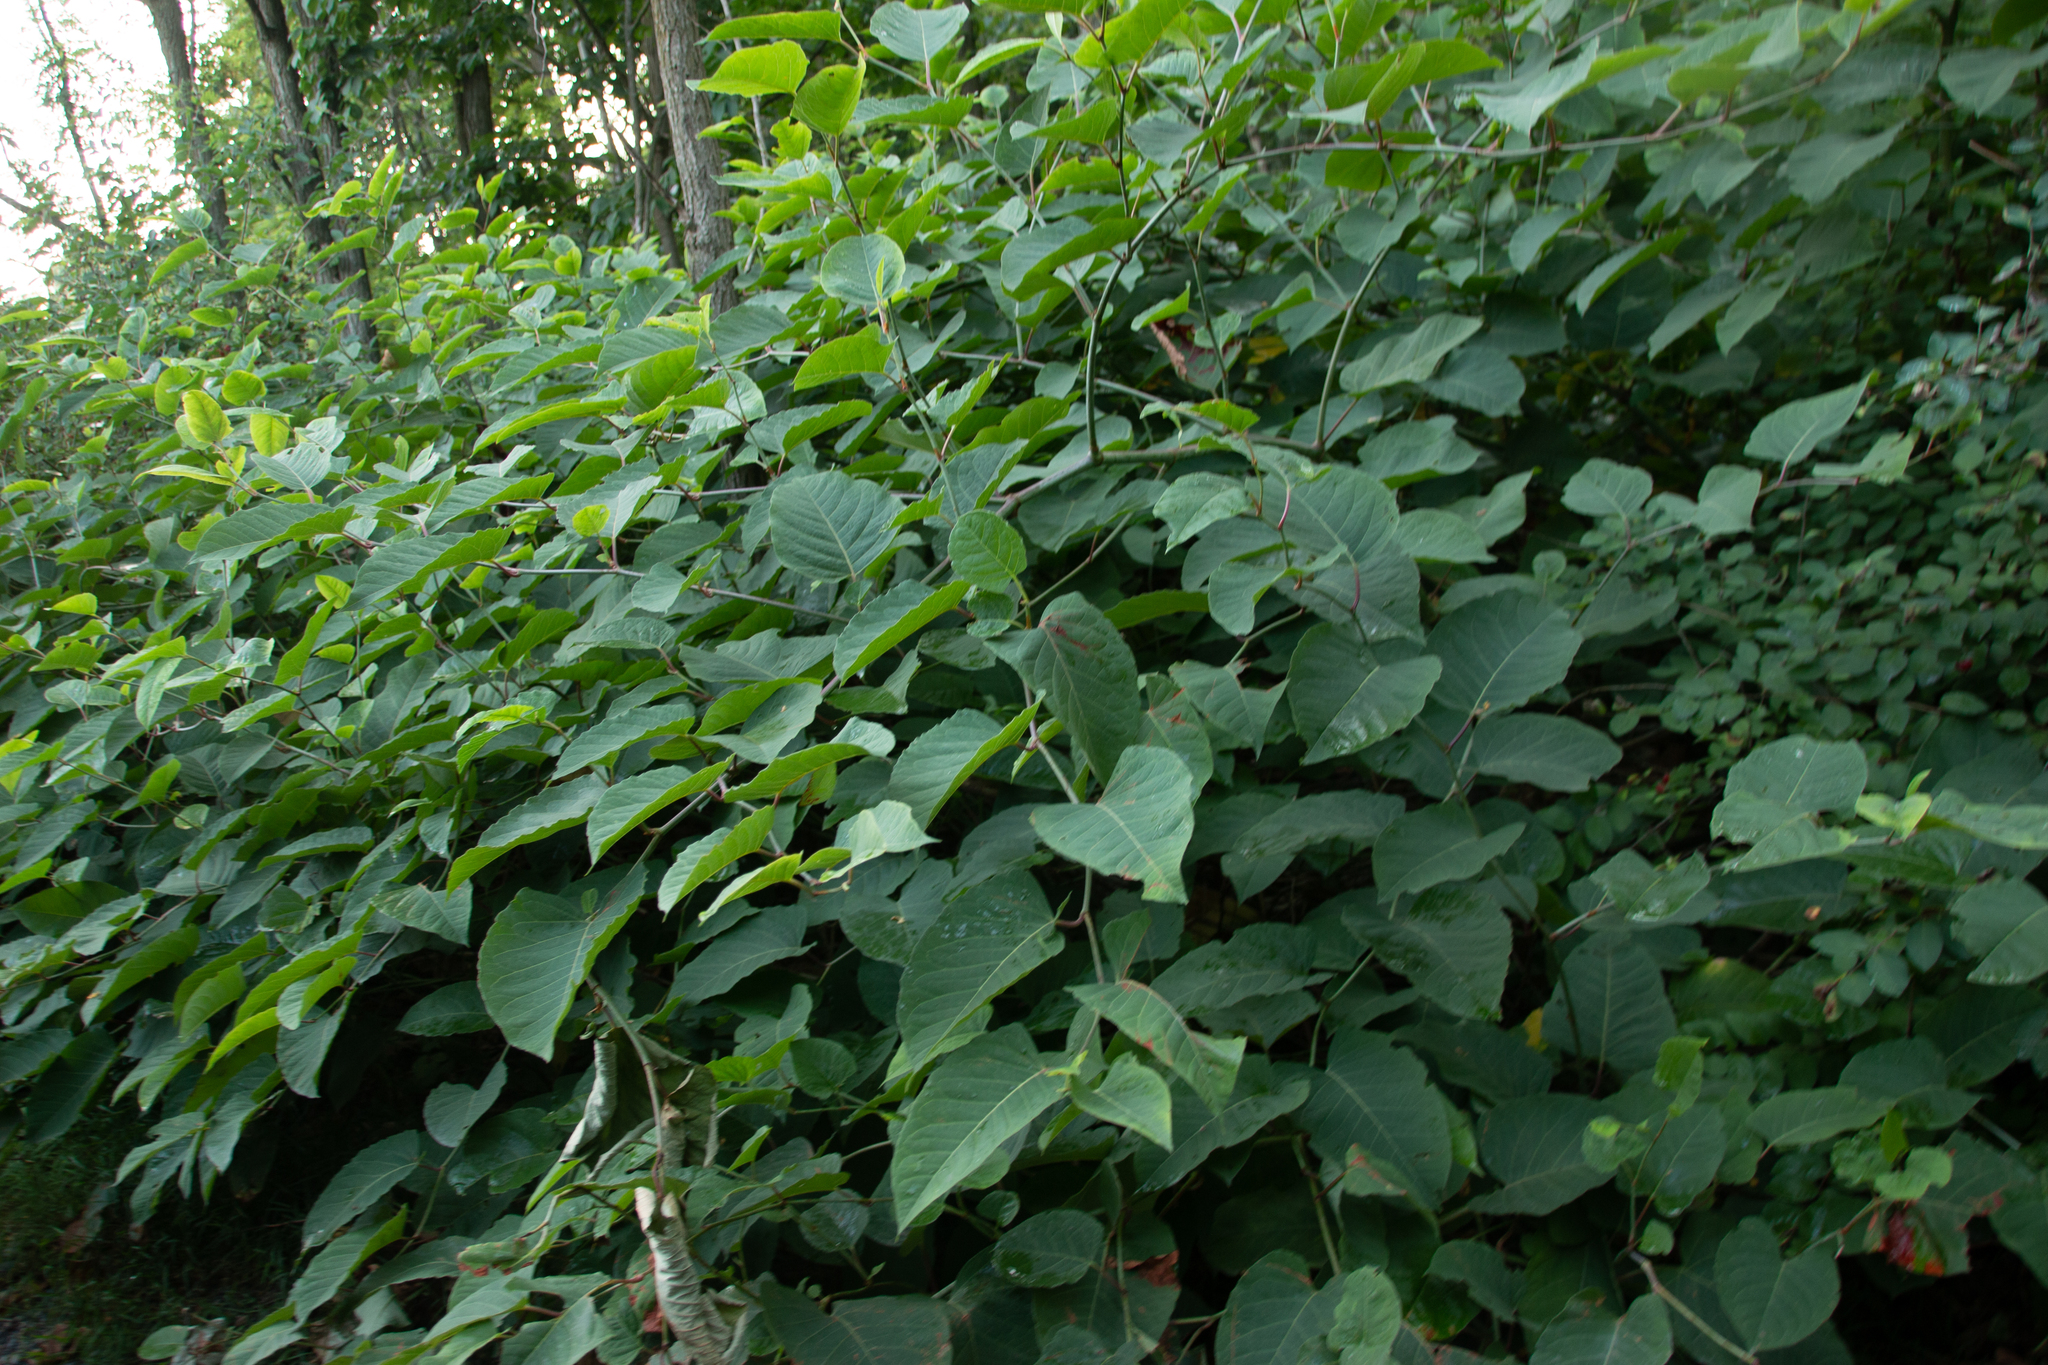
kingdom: Plantae
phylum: Tracheophyta
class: Magnoliopsida
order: Caryophyllales
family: Polygonaceae
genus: Reynoutria
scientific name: Reynoutria japonica
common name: Japanese knotweed
